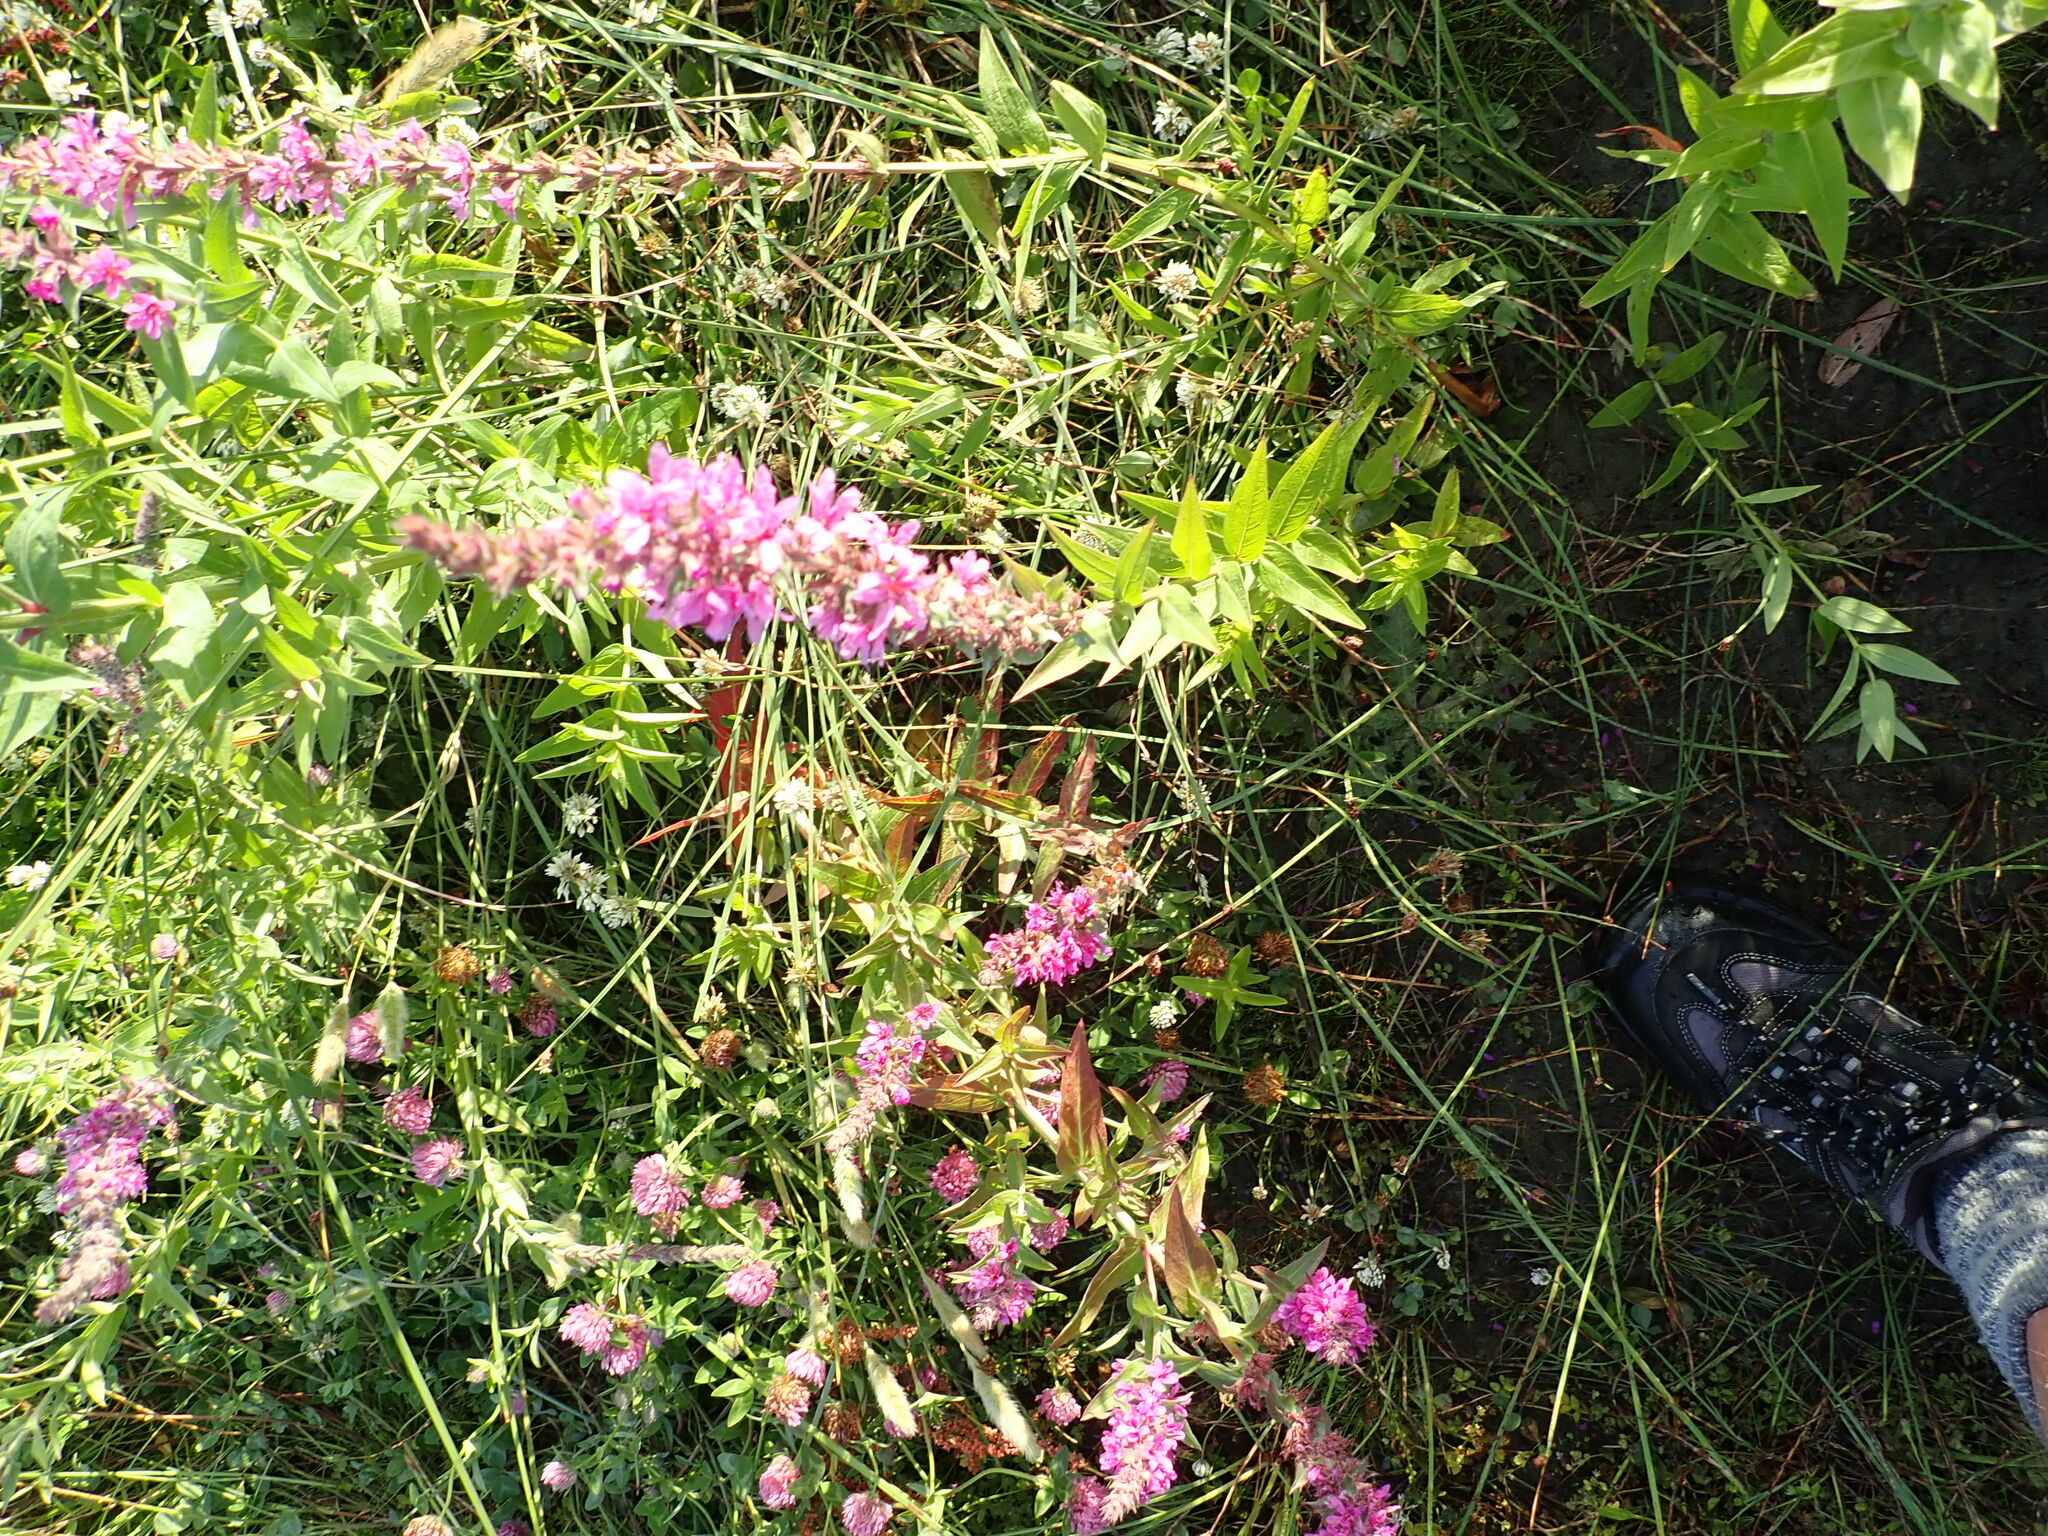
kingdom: Plantae
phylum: Tracheophyta
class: Magnoliopsida
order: Myrtales
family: Lythraceae
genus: Lythrum
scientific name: Lythrum salicaria
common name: Purple loosestrife
